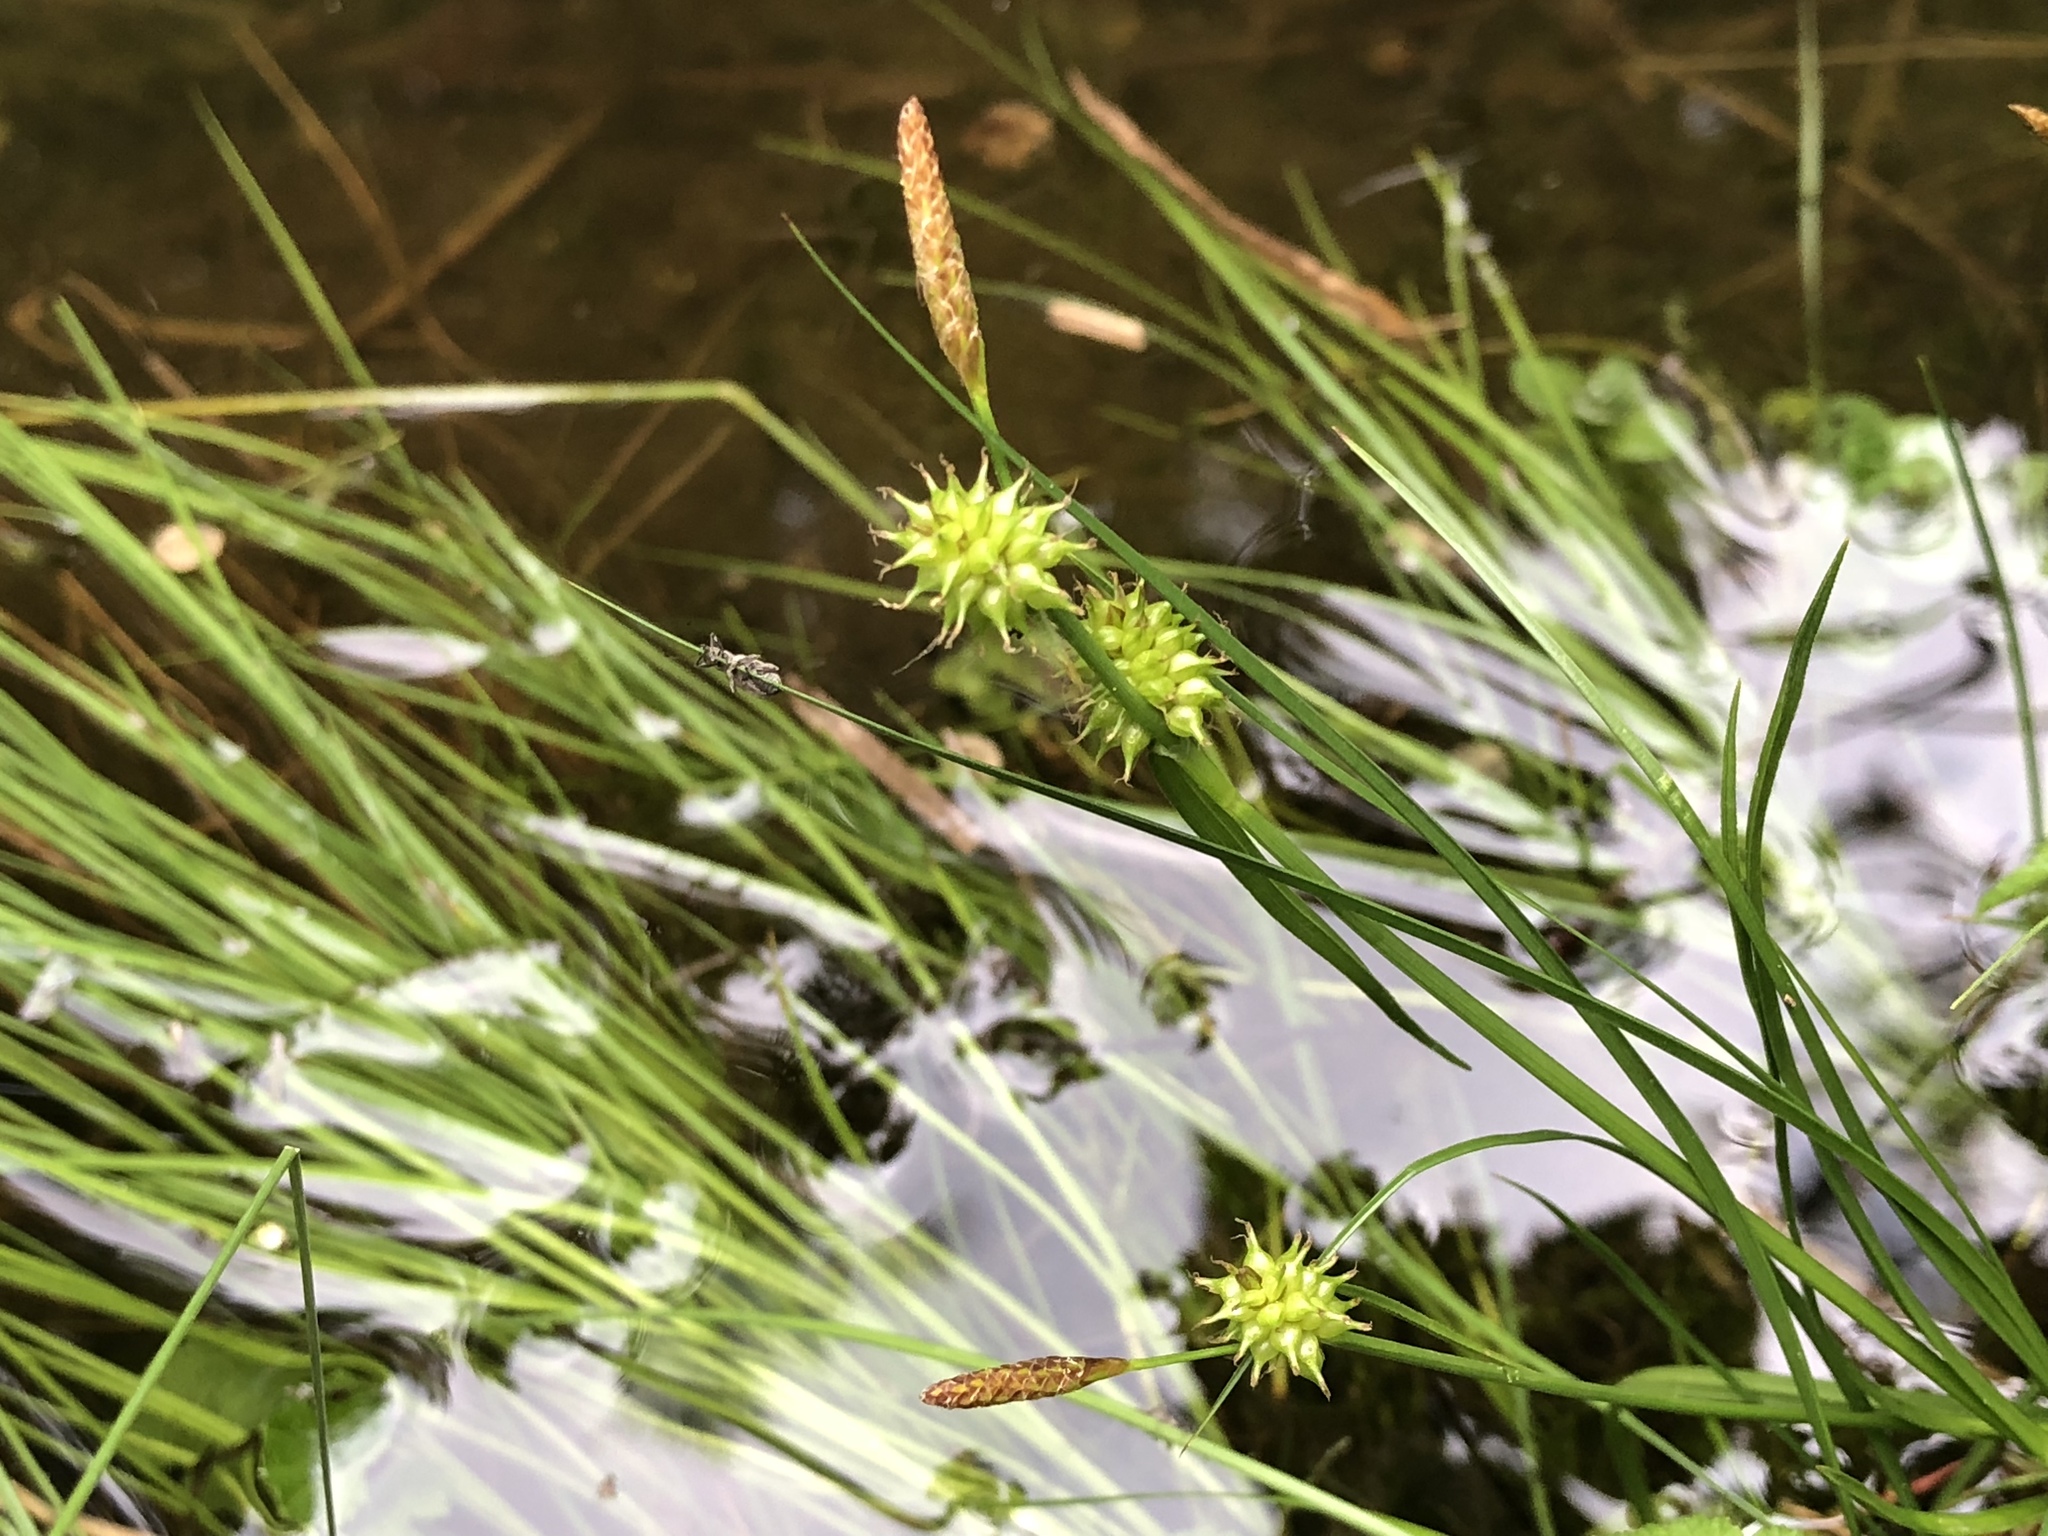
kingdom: Plantae
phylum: Tracheophyta
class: Liliopsida
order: Poales
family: Cyperaceae
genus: Carex
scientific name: Carex flava
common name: Large yellow-sedge
